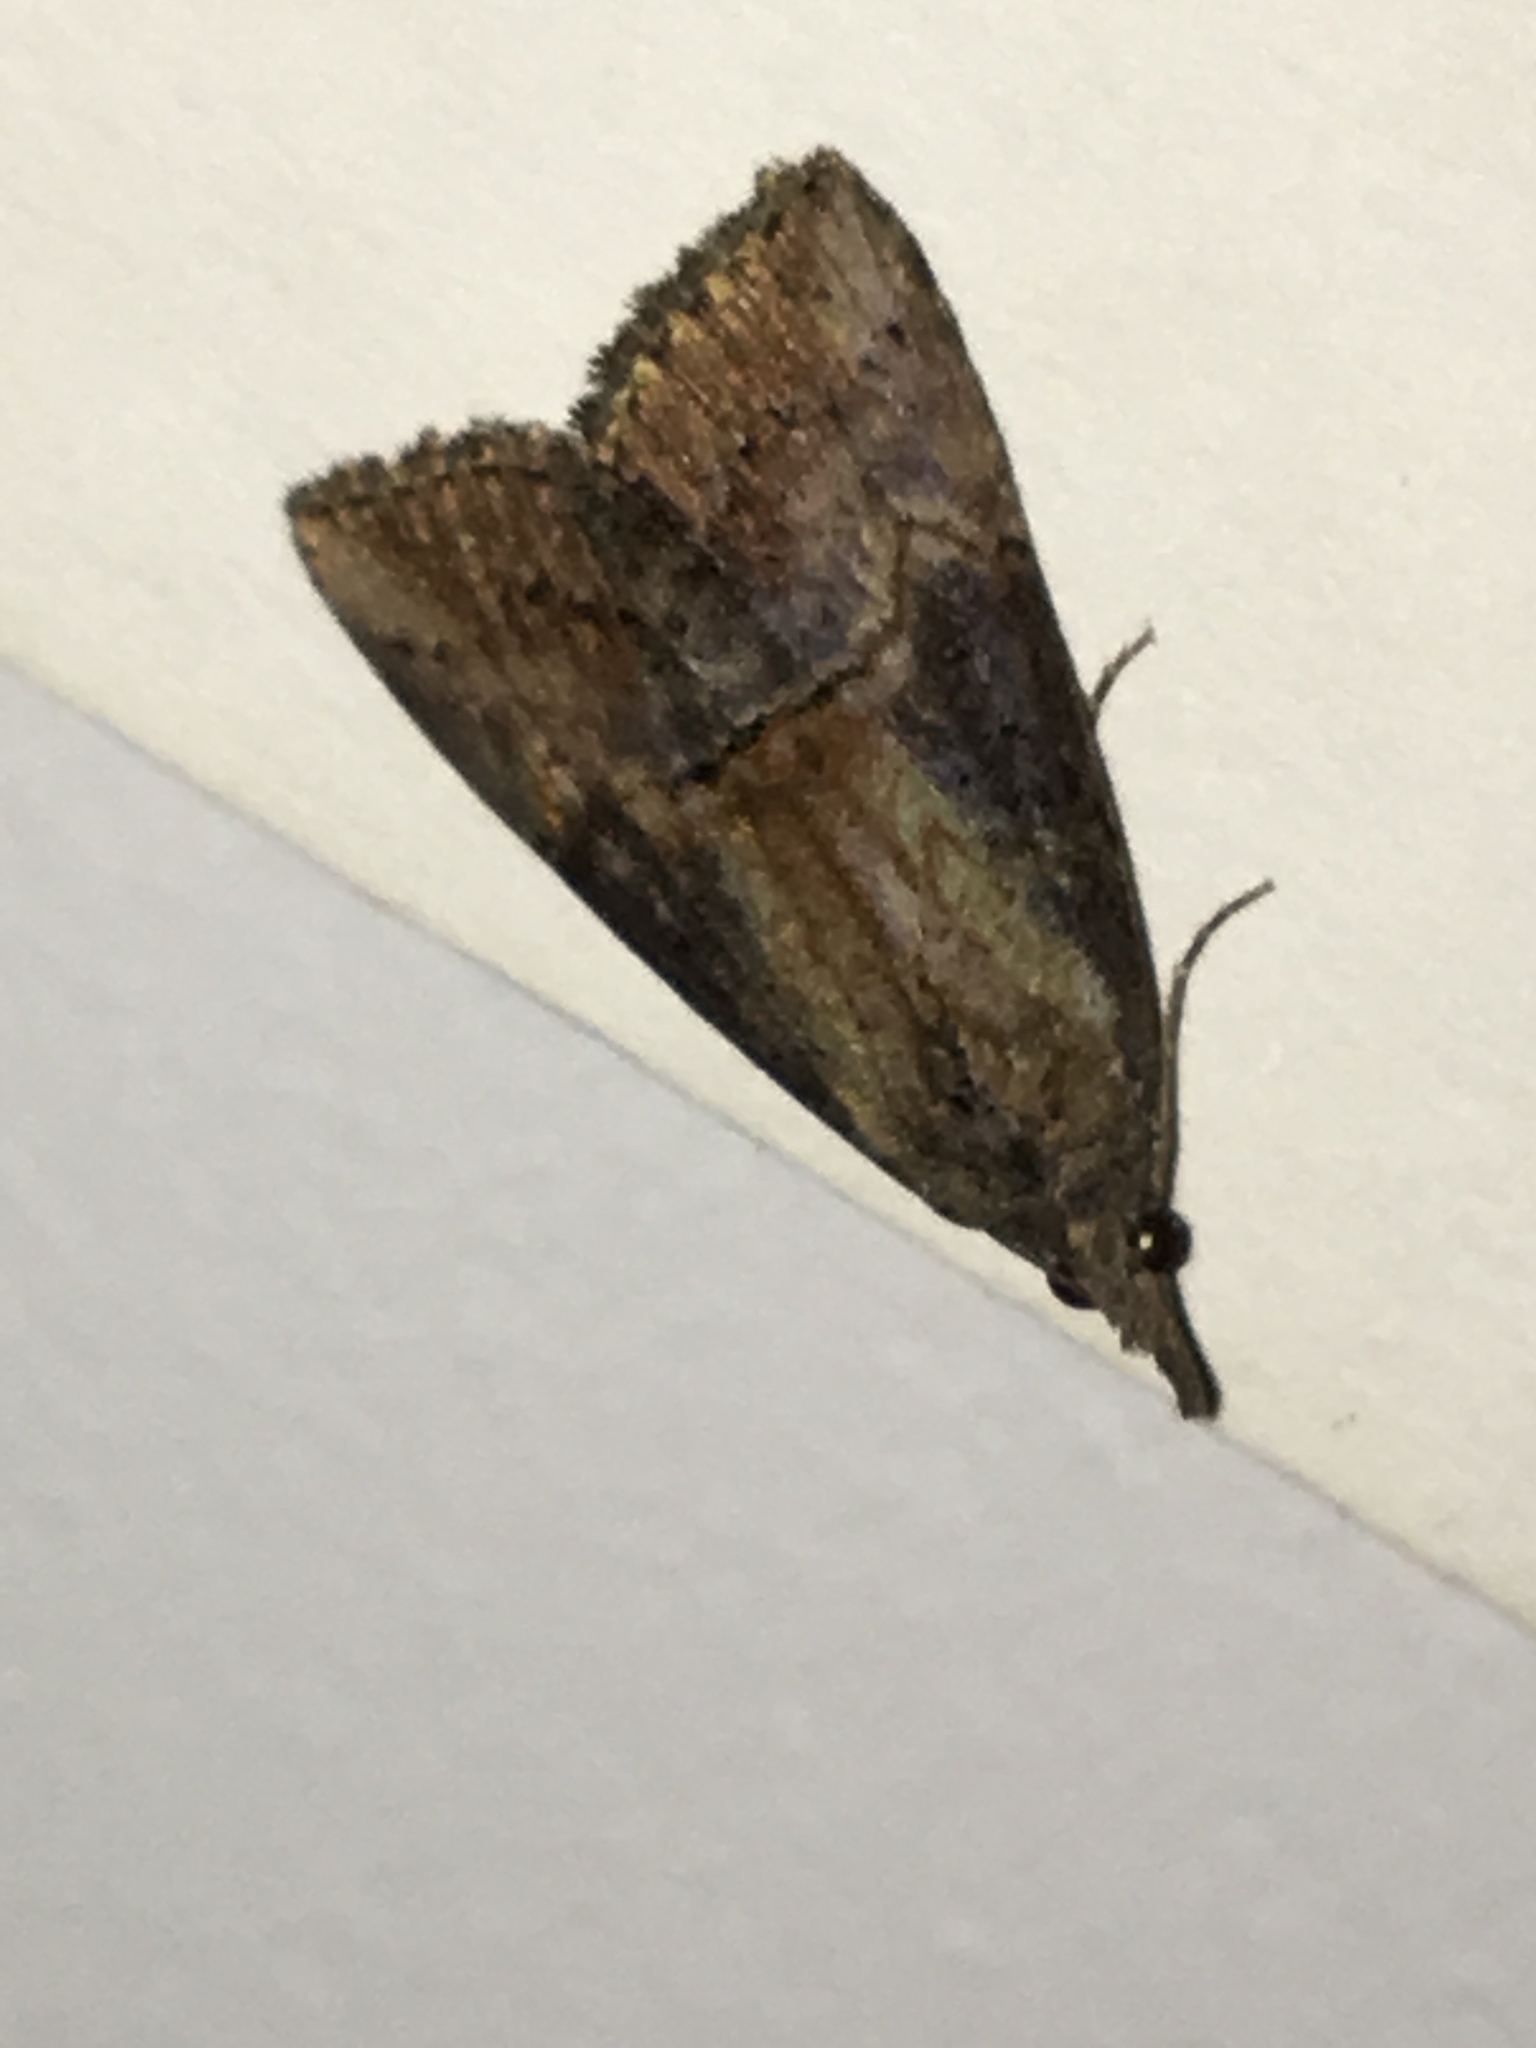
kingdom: Animalia
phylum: Arthropoda
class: Insecta
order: Lepidoptera
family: Erebidae
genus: Hypena
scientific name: Hypena scabra
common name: Green cloverworm
